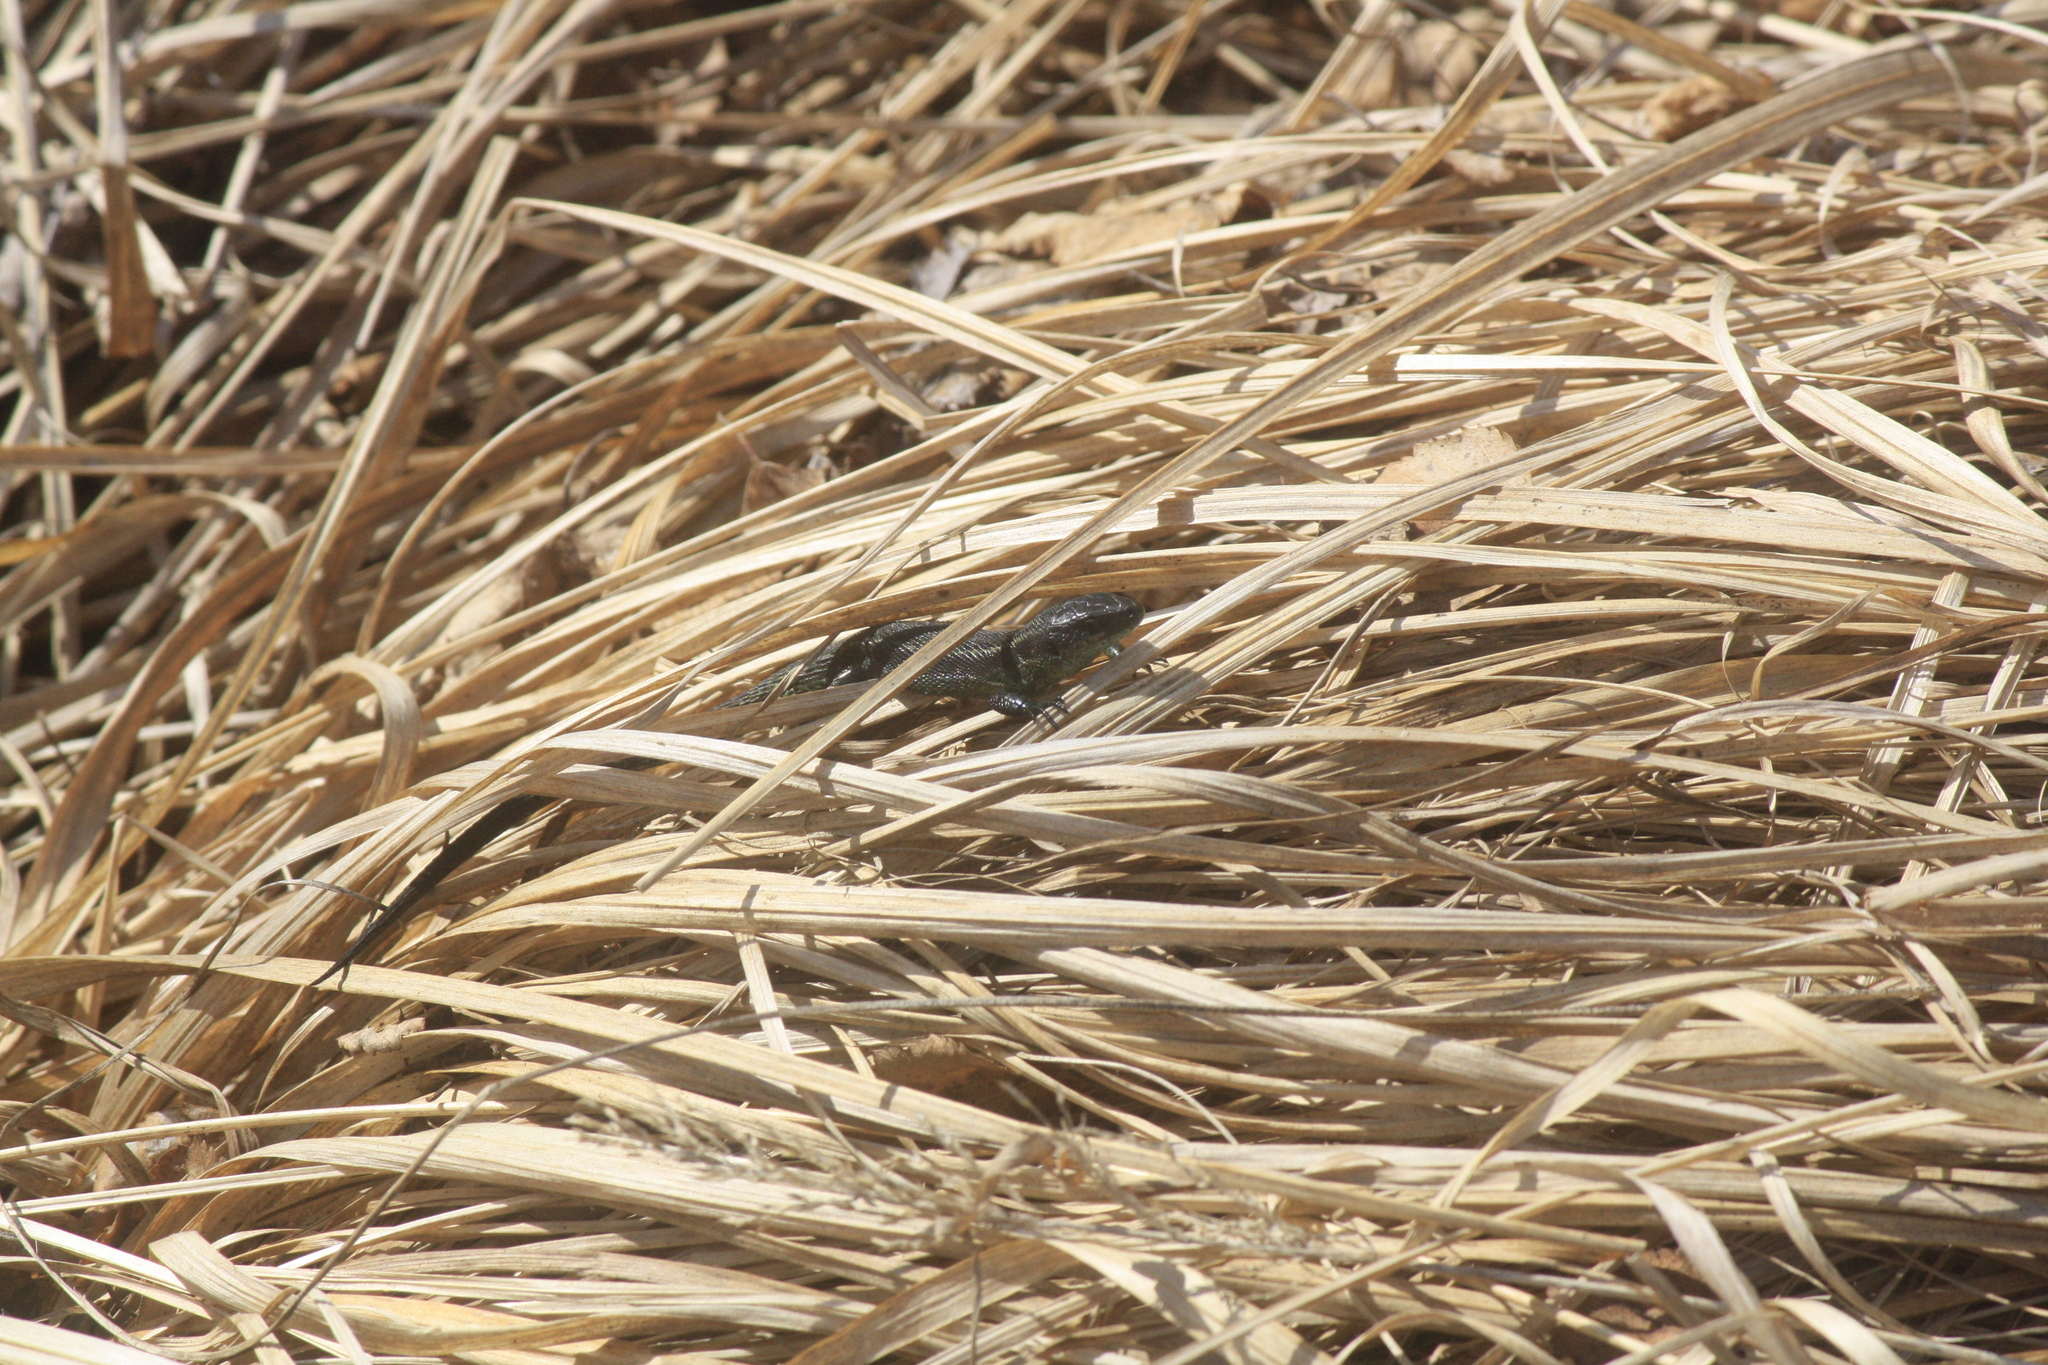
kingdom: Animalia
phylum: Chordata
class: Squamata
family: Lacertidae
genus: Zootoca
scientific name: Zootoca vivipara
